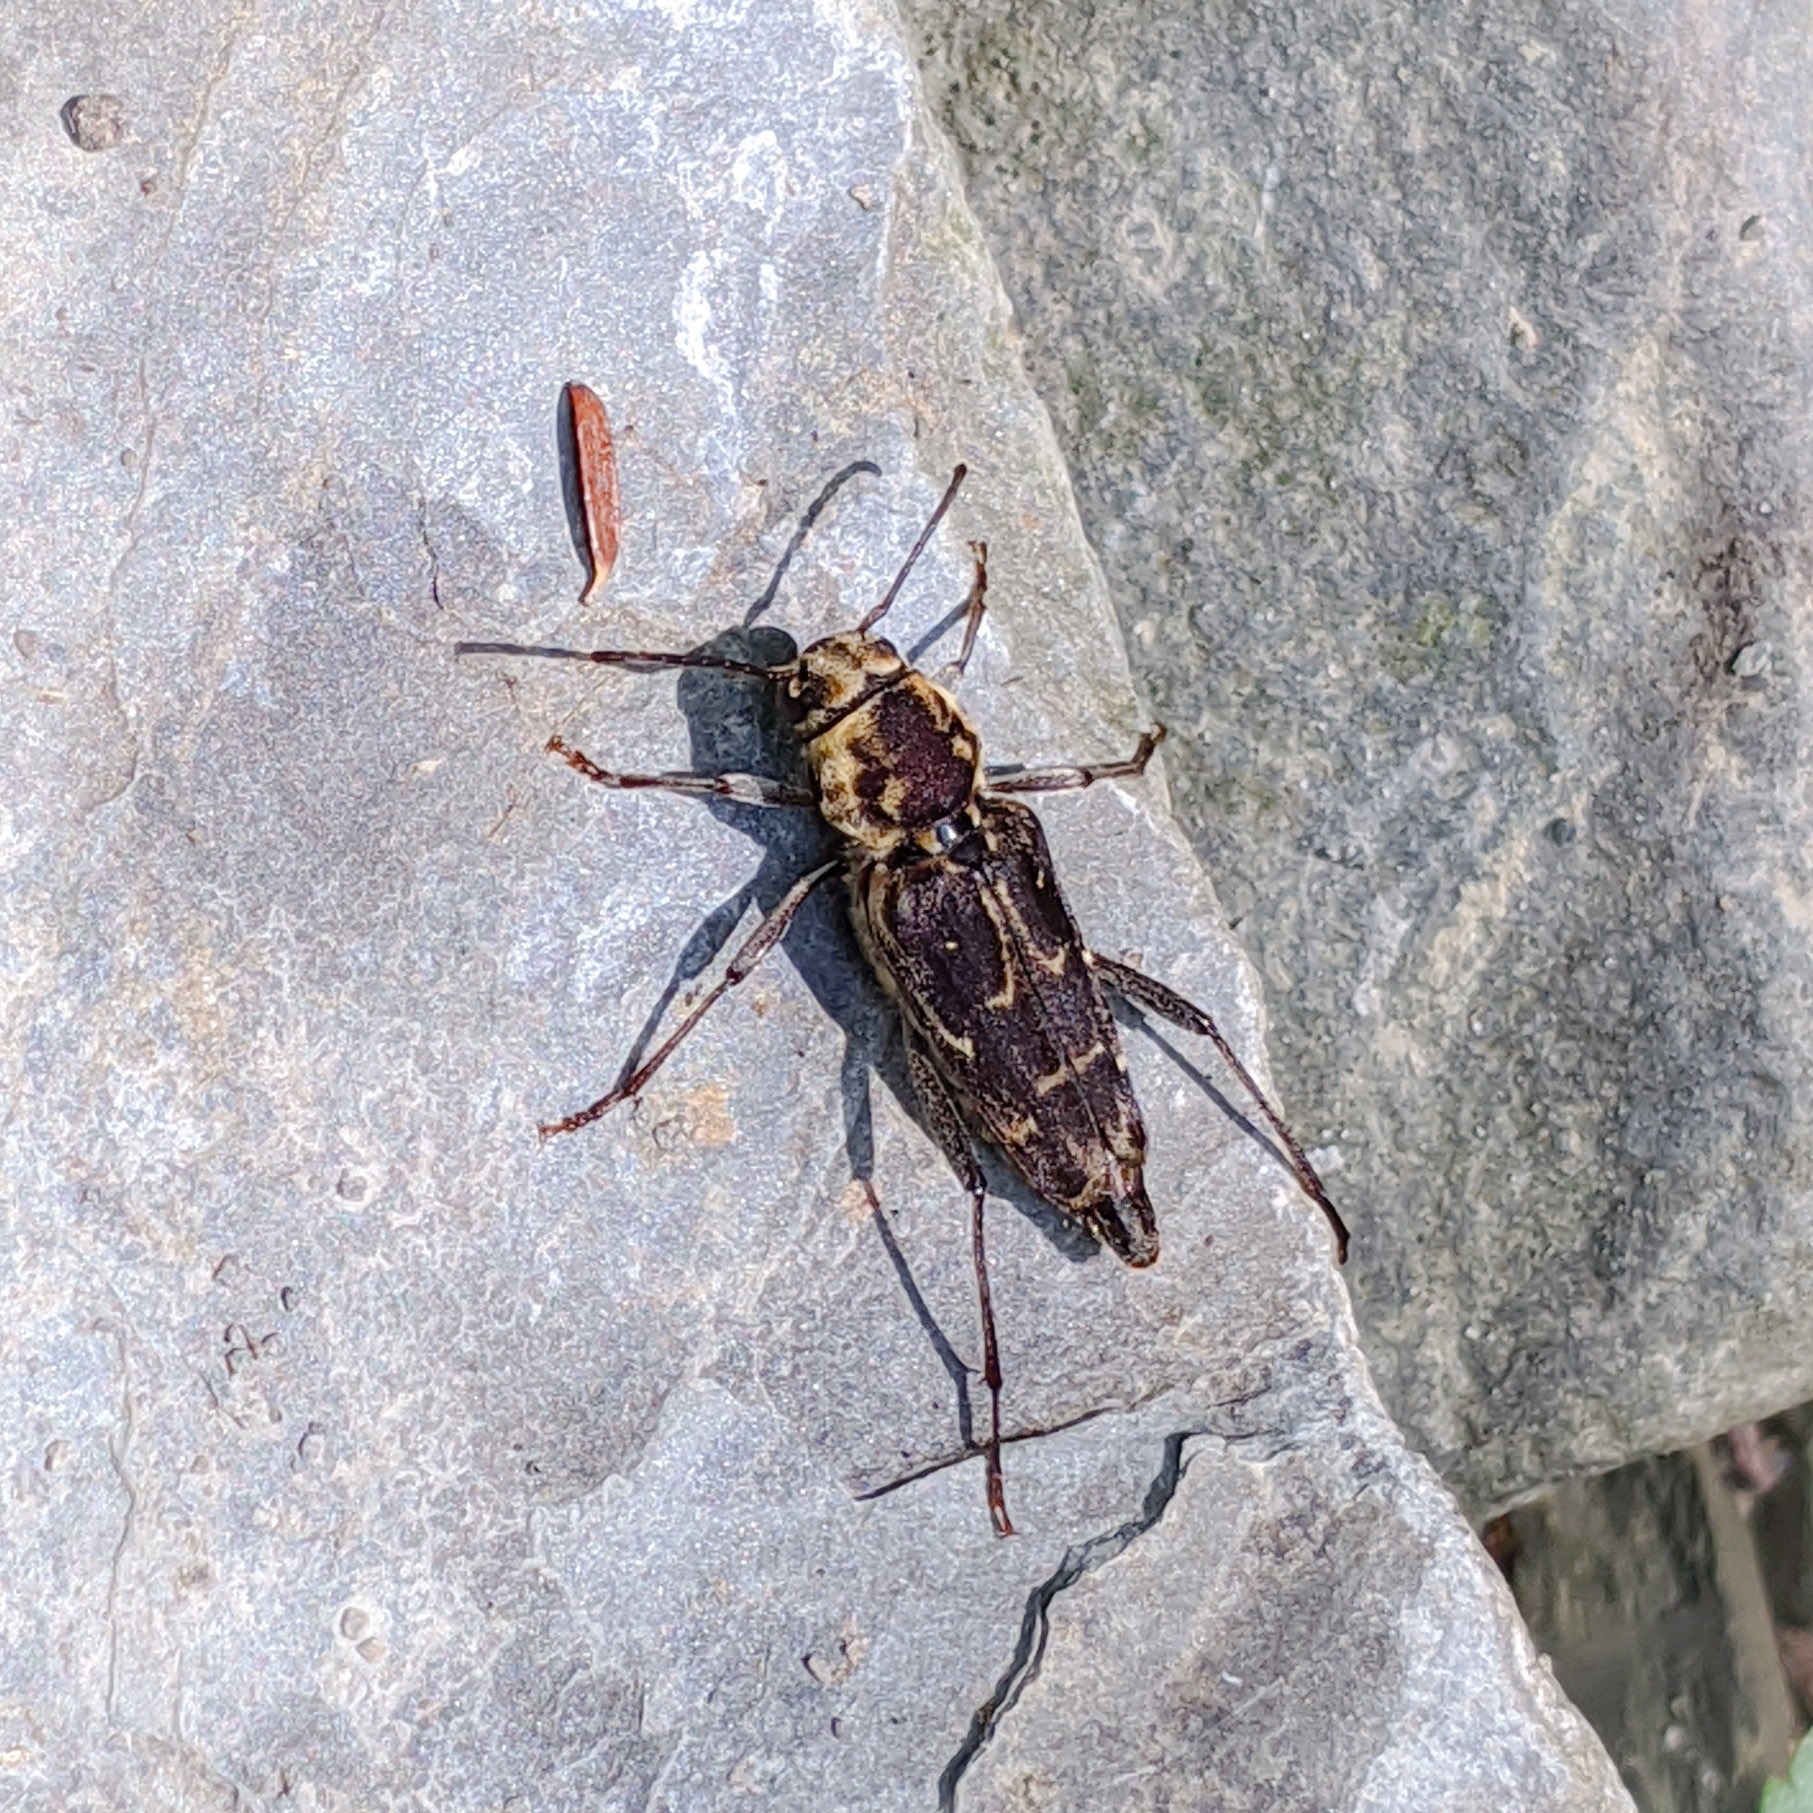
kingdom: Animalia
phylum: Arthropoda
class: Insecta
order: Coleoptera
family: Cerambycidae
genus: Xylotrechus
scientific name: Xylotrechus integer
